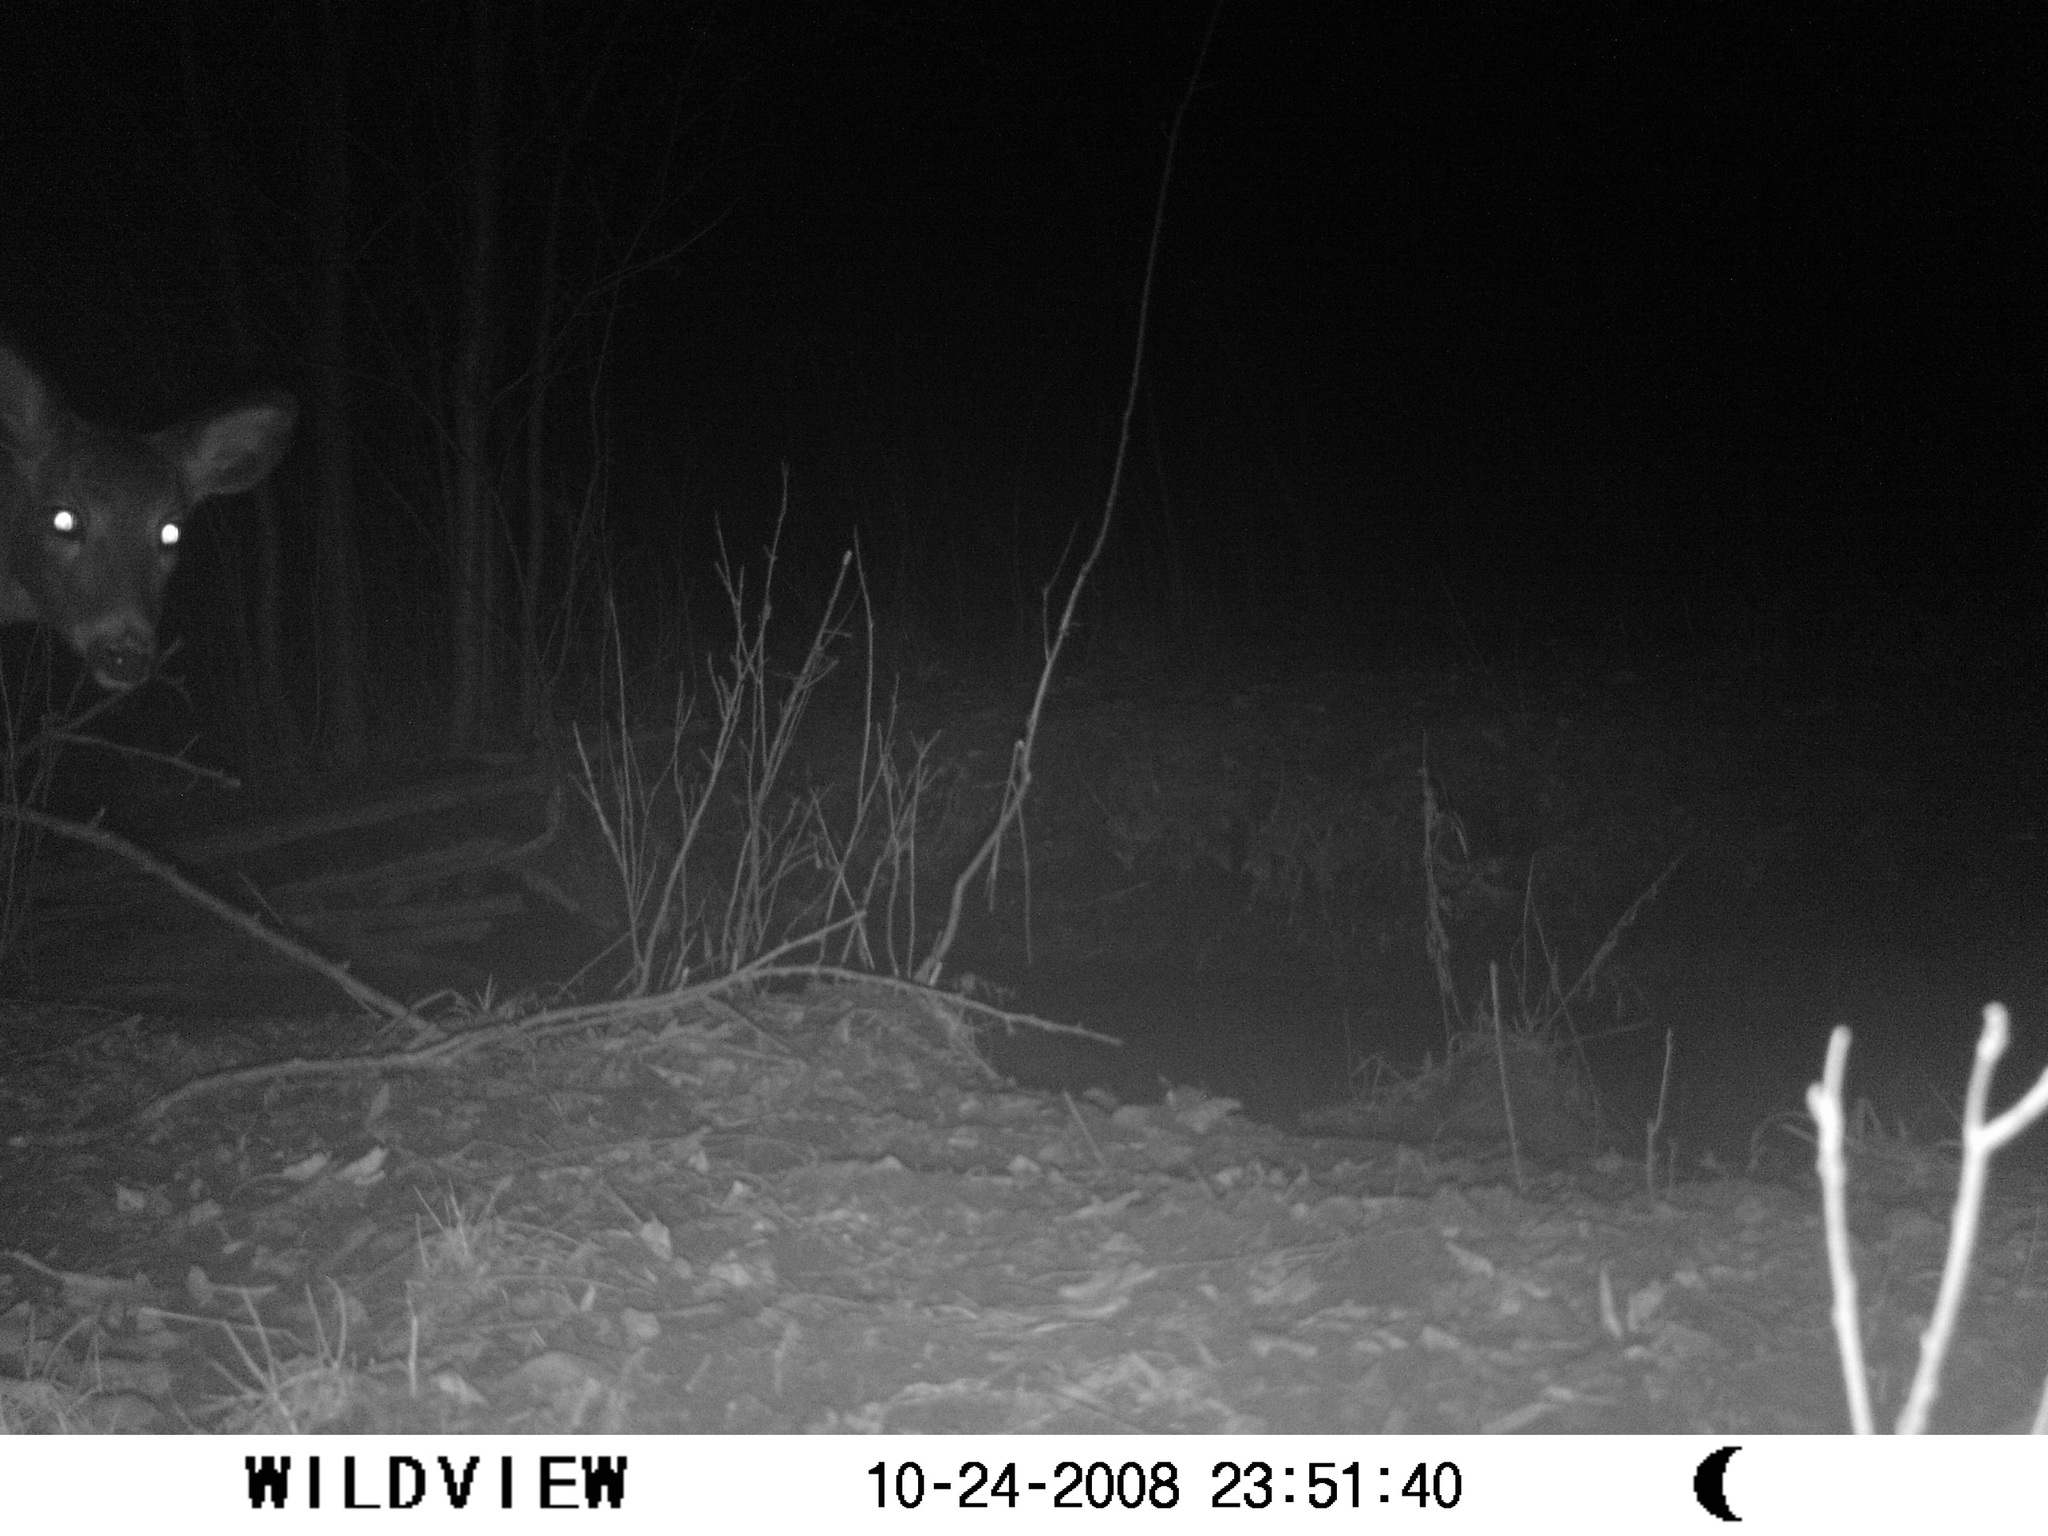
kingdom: Animalia
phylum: Chordata
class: Mammalia
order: Artiodactyla
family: Cervidae
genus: Odocoileus
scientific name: Odocoileus virginianus
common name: White-tailed deer
